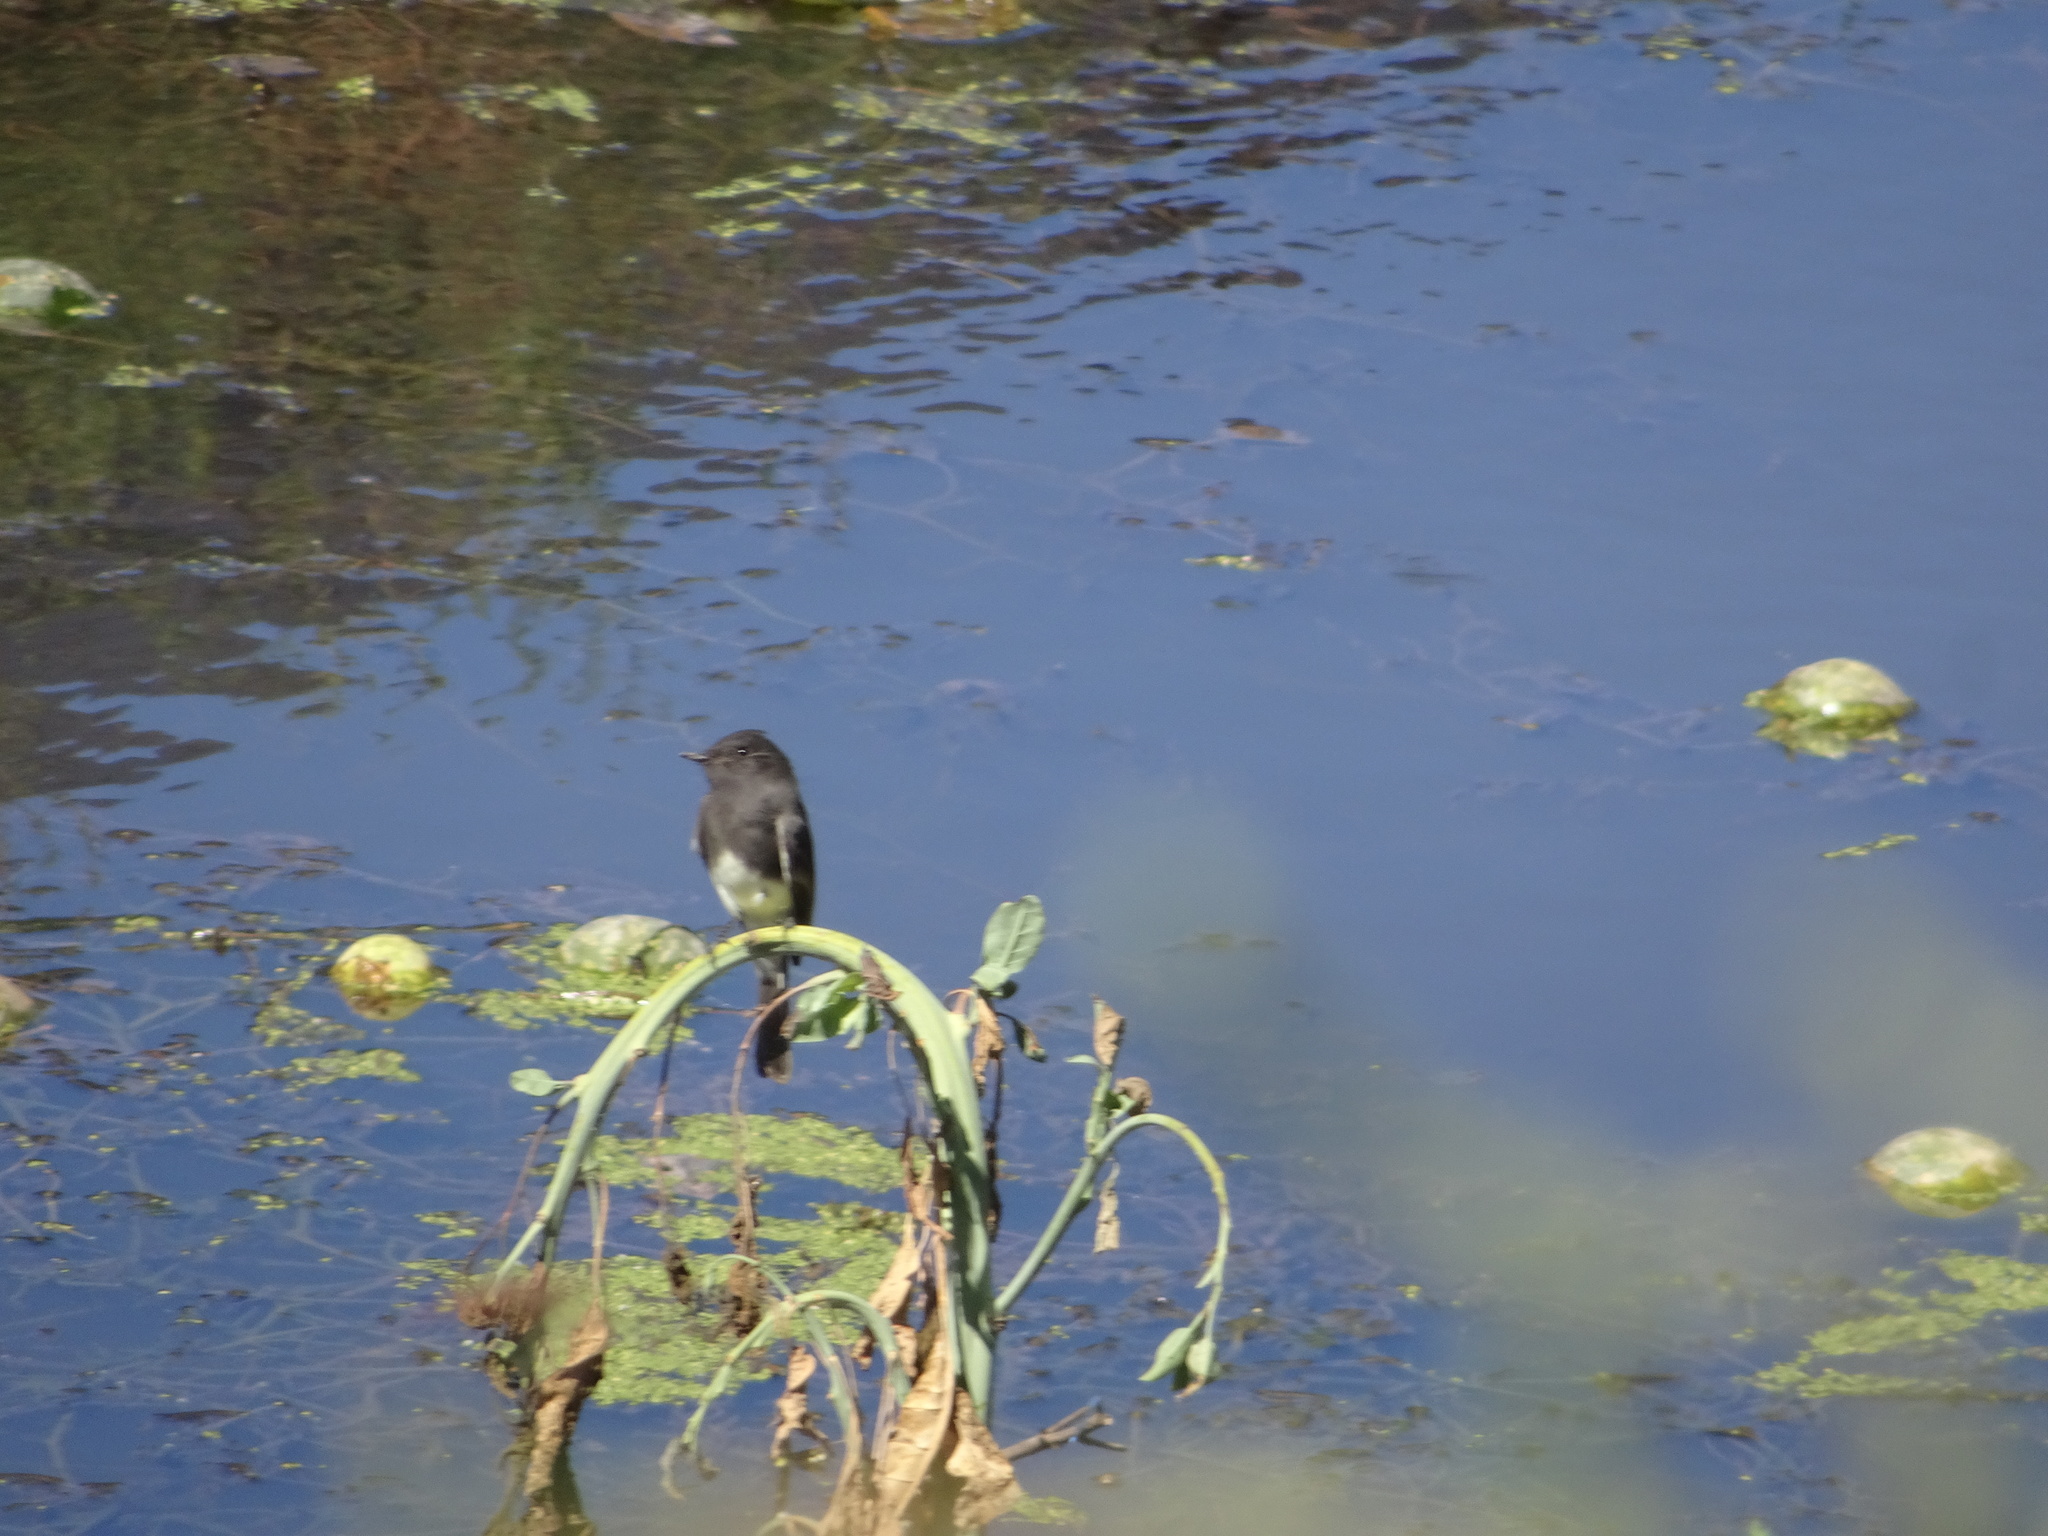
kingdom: Animalia
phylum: Chordata
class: Aves
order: Passeriformes
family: Tyrannidae
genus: Sayornis
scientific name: Sayornis nigricans
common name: Black phoebe
